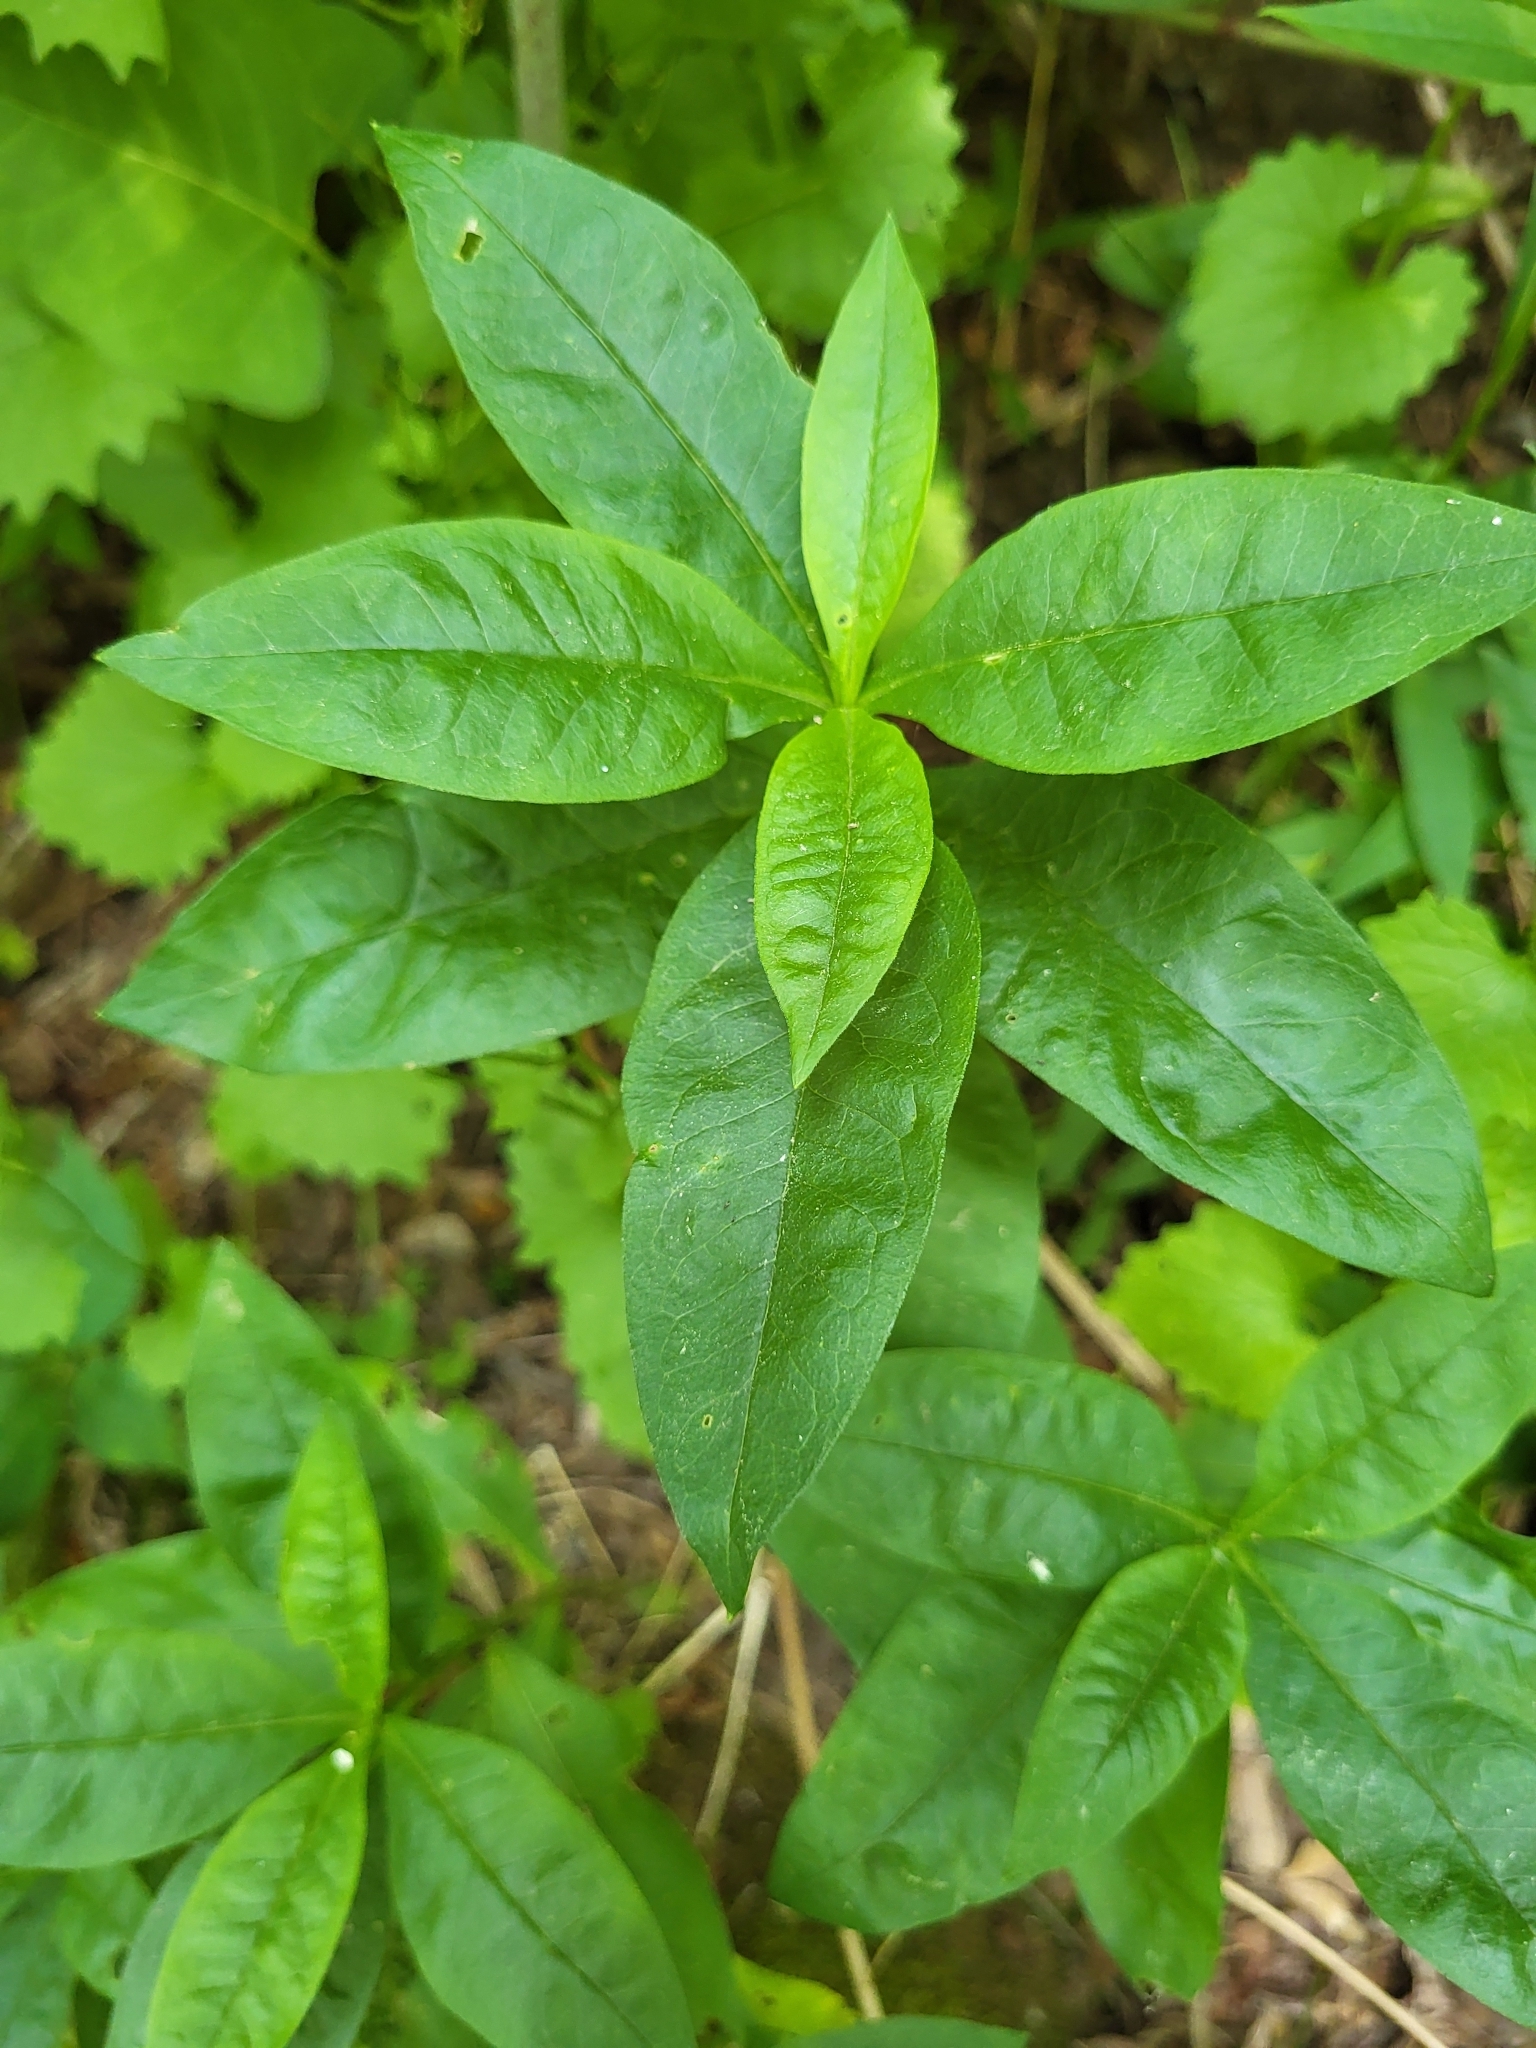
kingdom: Plantae
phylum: Tracheophyta
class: Magnoliopsida
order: Ericales
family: Polemoniaceae
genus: Phlox
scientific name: Phlox paniculata
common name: Fall phlox
